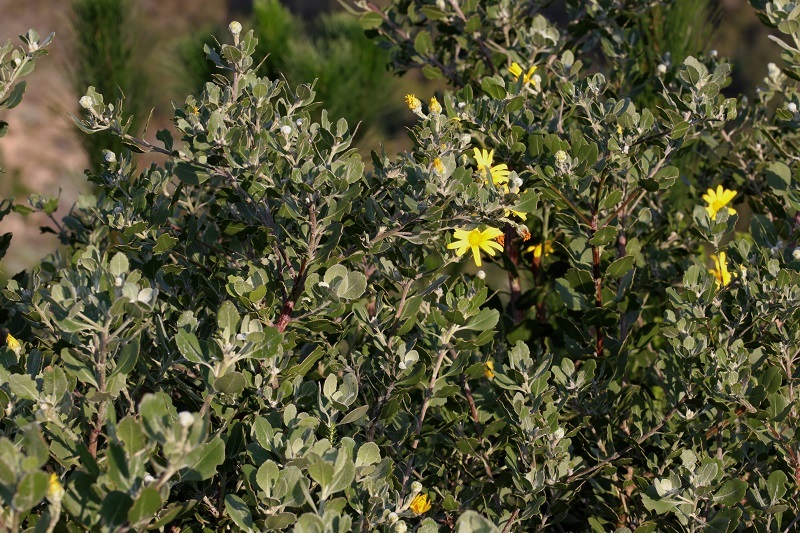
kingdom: Plantae
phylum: Tracheophyta
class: Magnoliopsida
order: Asterales
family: Asteraceae
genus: Osteospermum
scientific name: Osteospermum moniliferum
